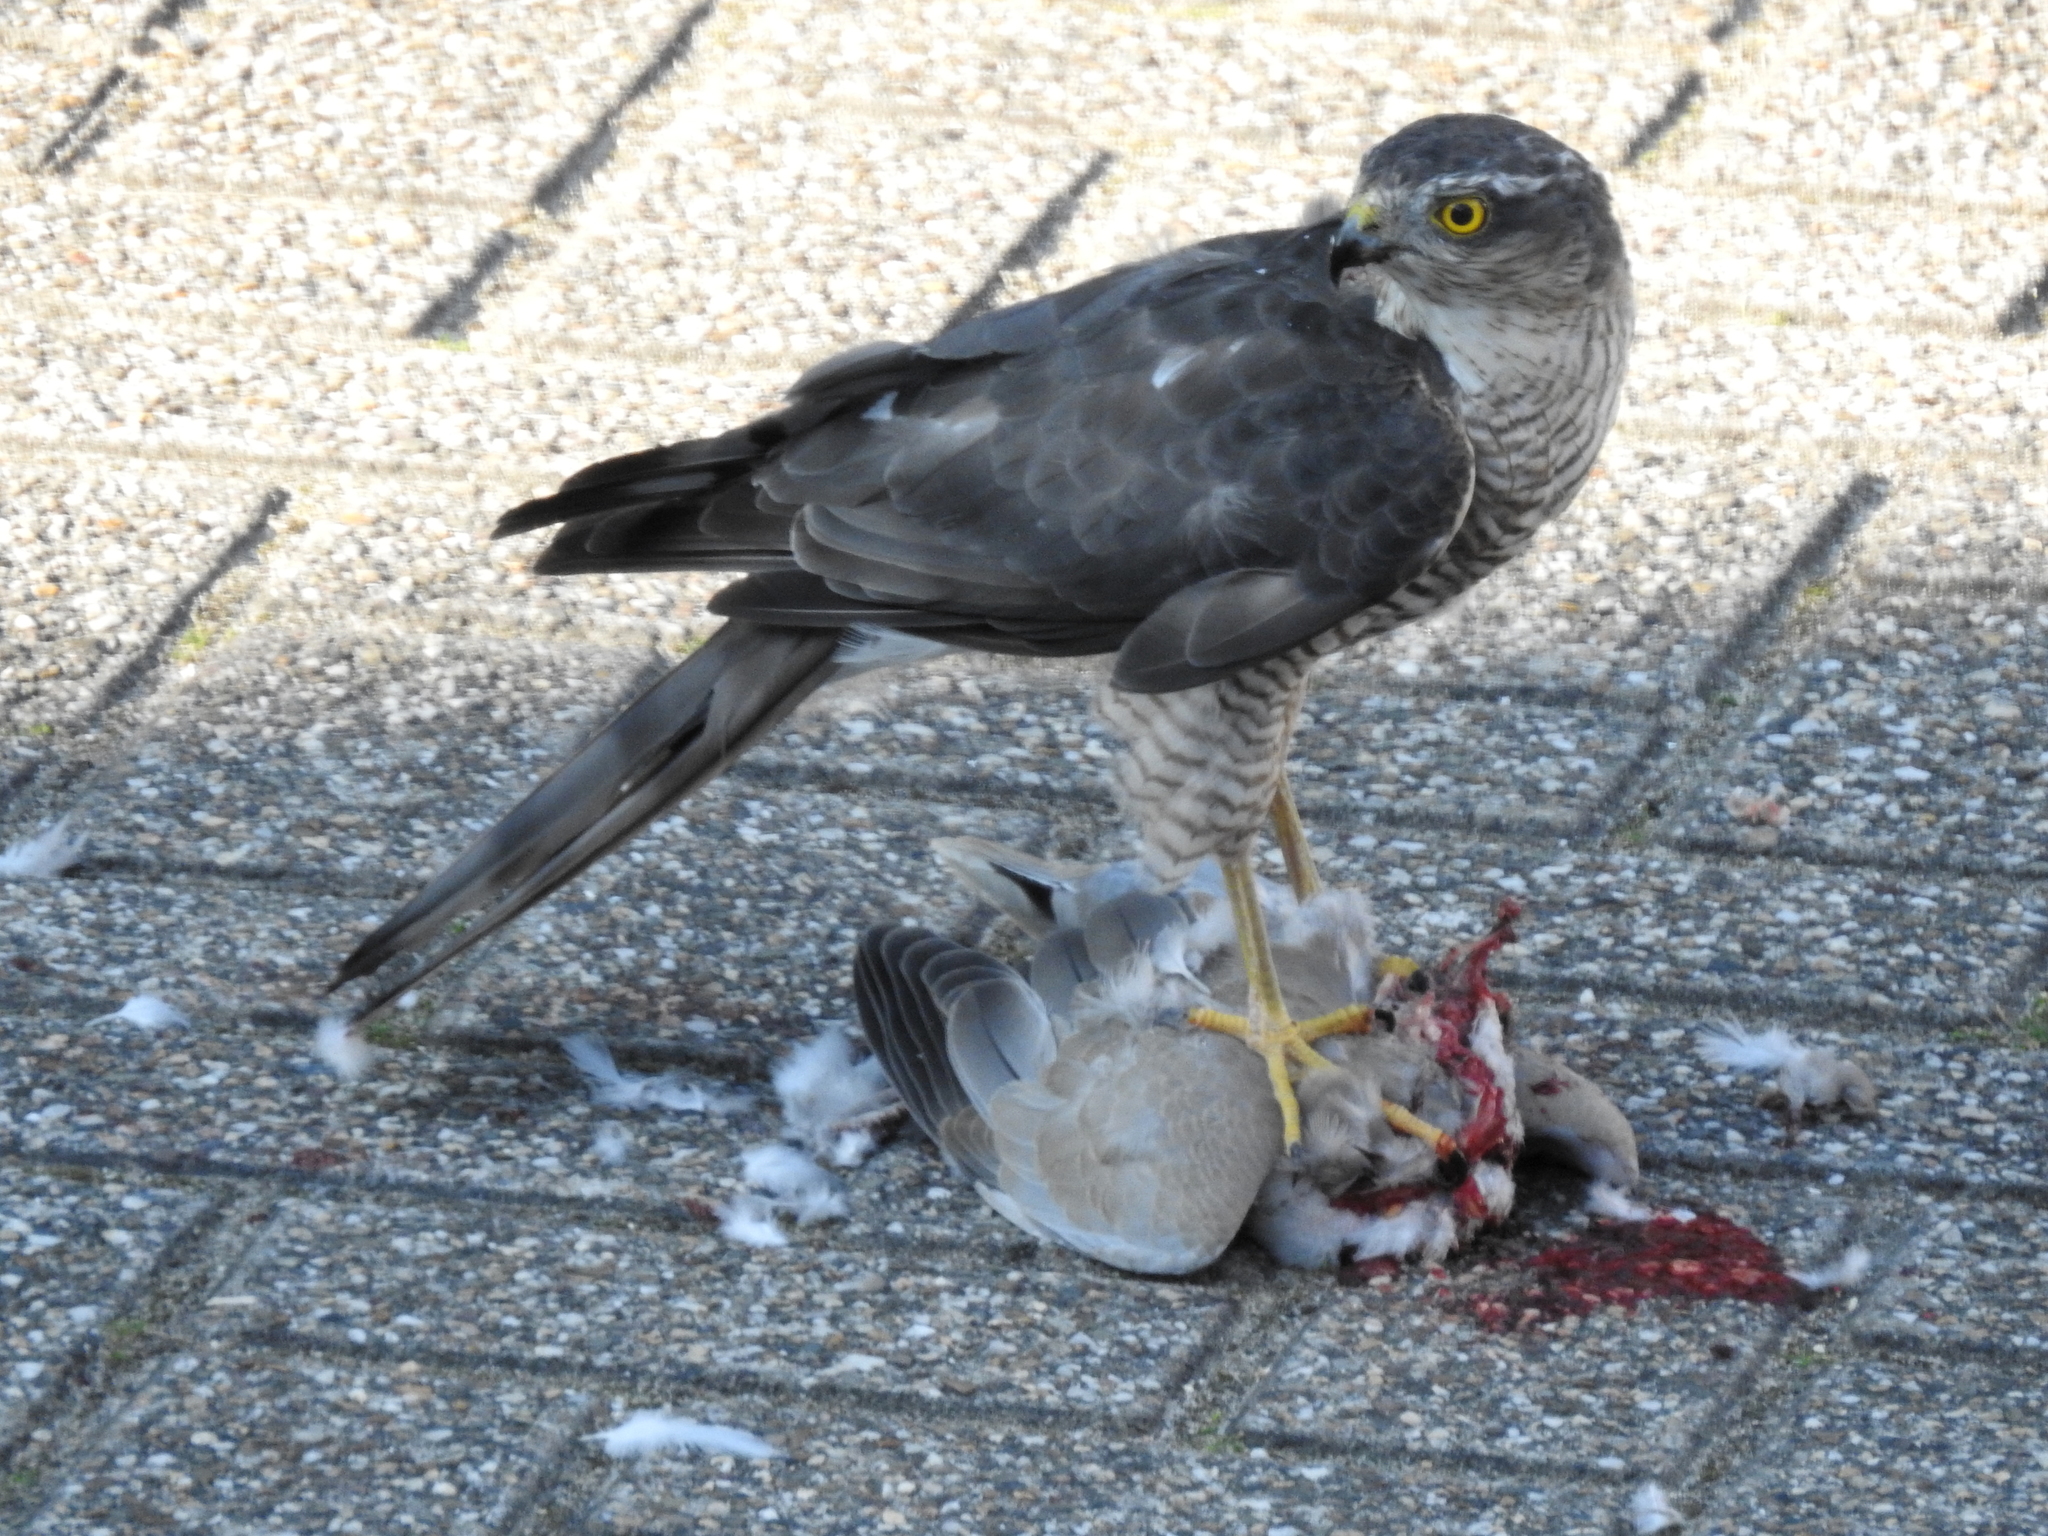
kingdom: Animalia
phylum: Chordata
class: Aves
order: Columbiformes
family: Columbidae
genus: Streptopelia
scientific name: Streptopelia decaocto
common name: Eurasian collared dove
